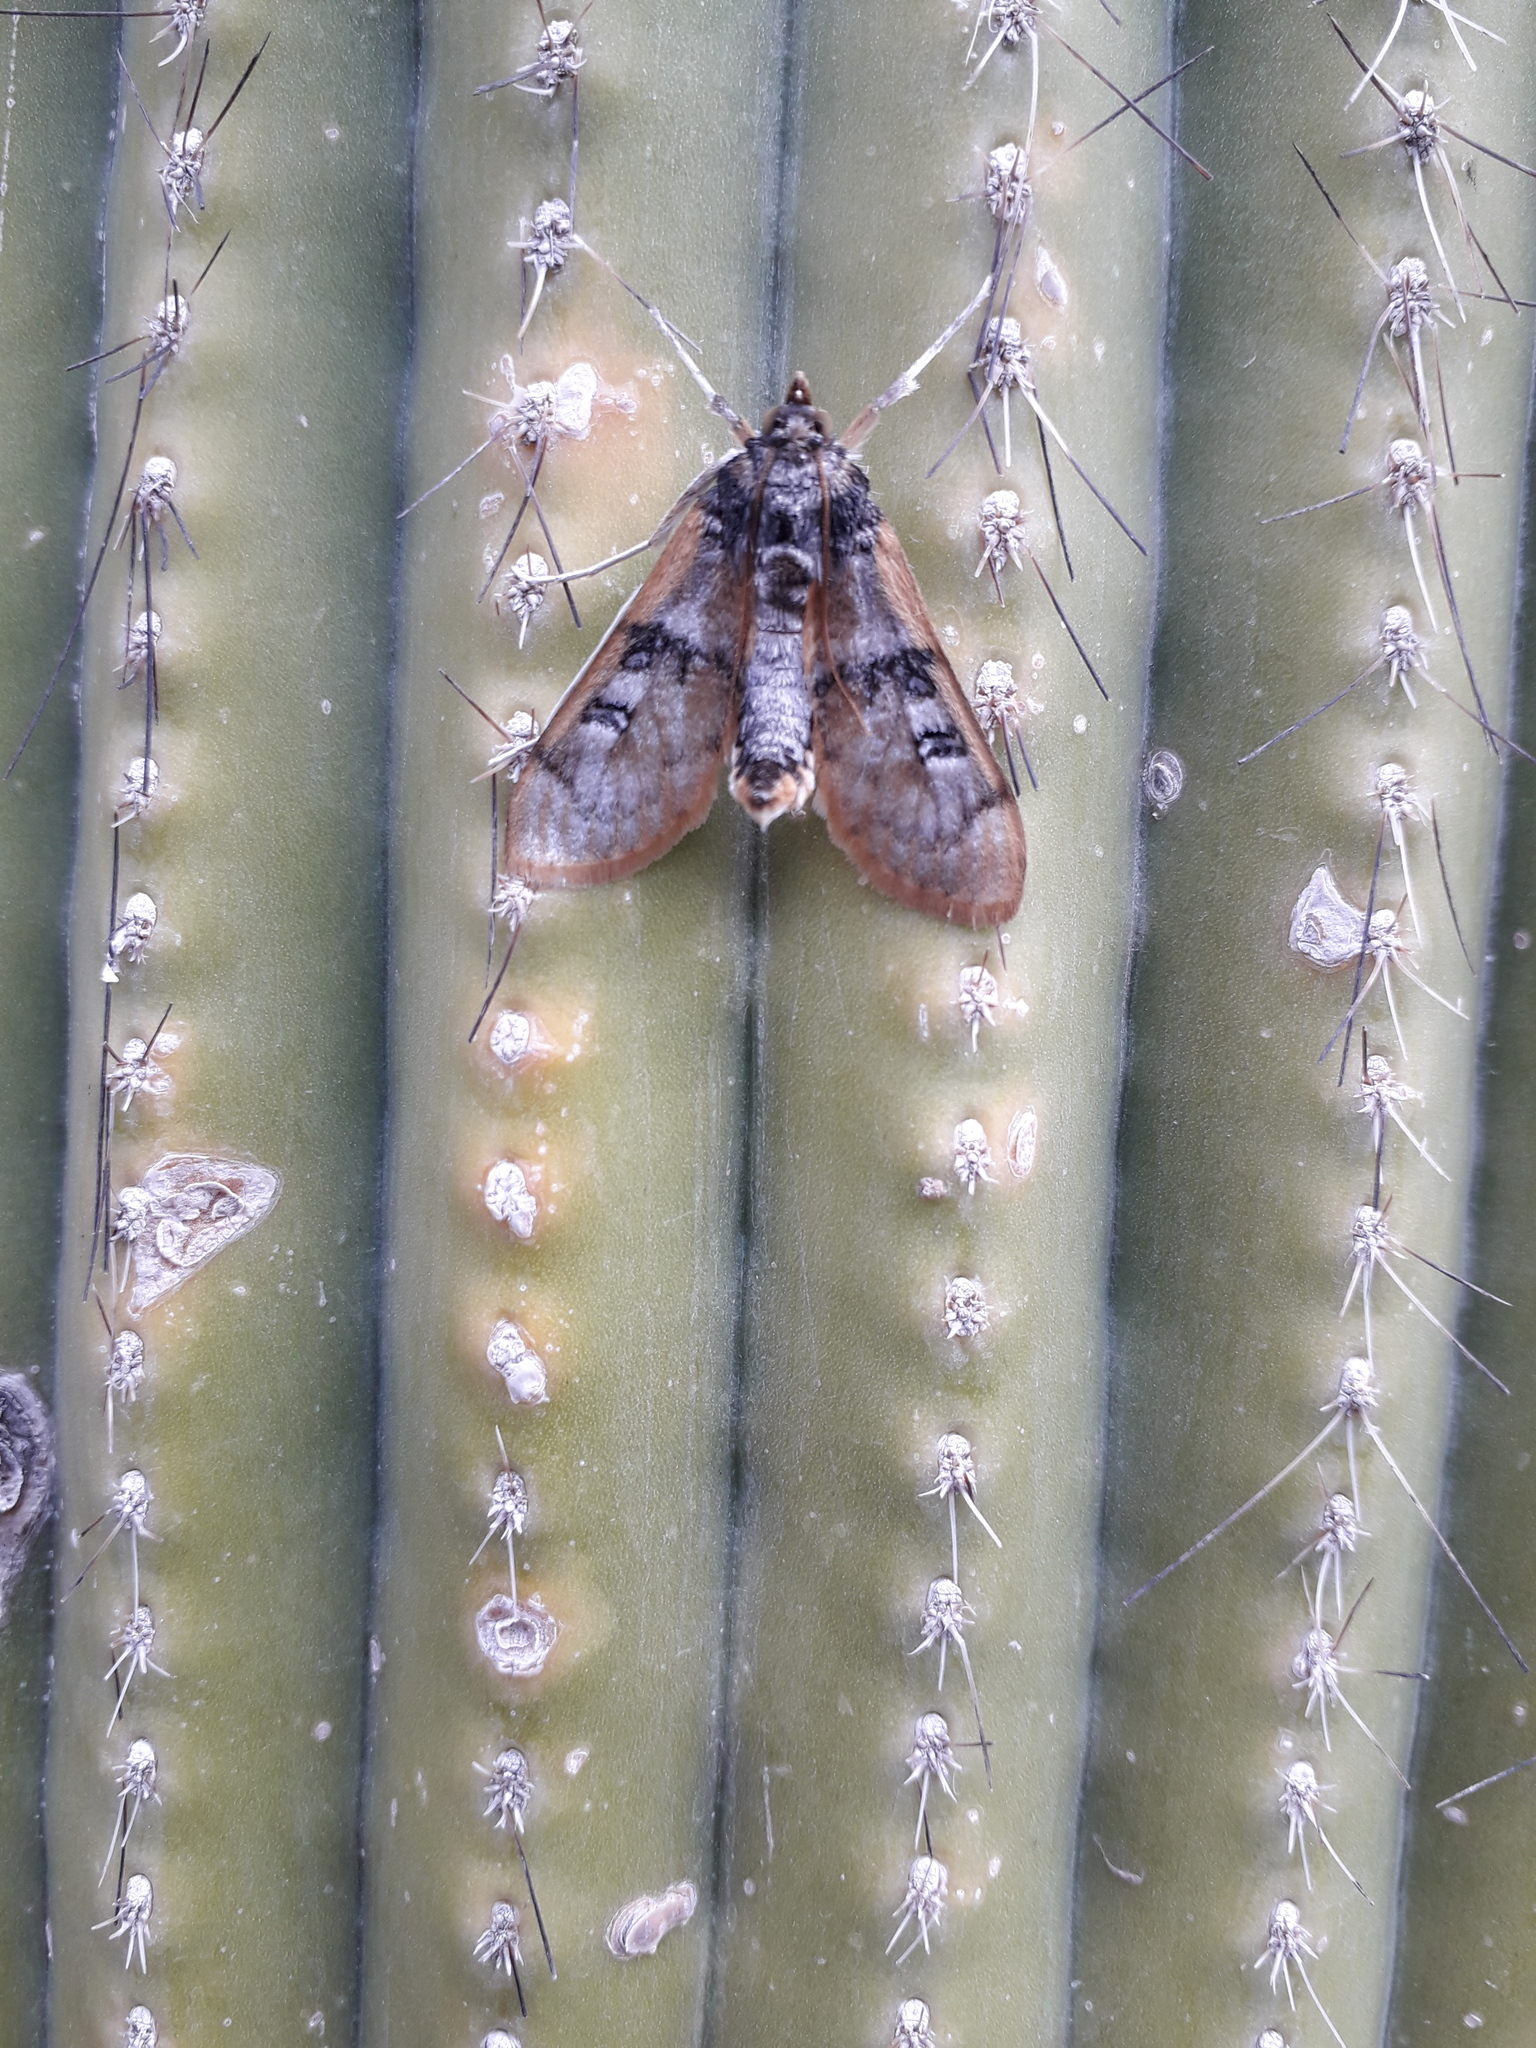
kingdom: Animalia
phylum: Arthropoda
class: Insecta
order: Lepidoptera
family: Crambidae
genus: Laniifera
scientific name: Laniifera cyclades
